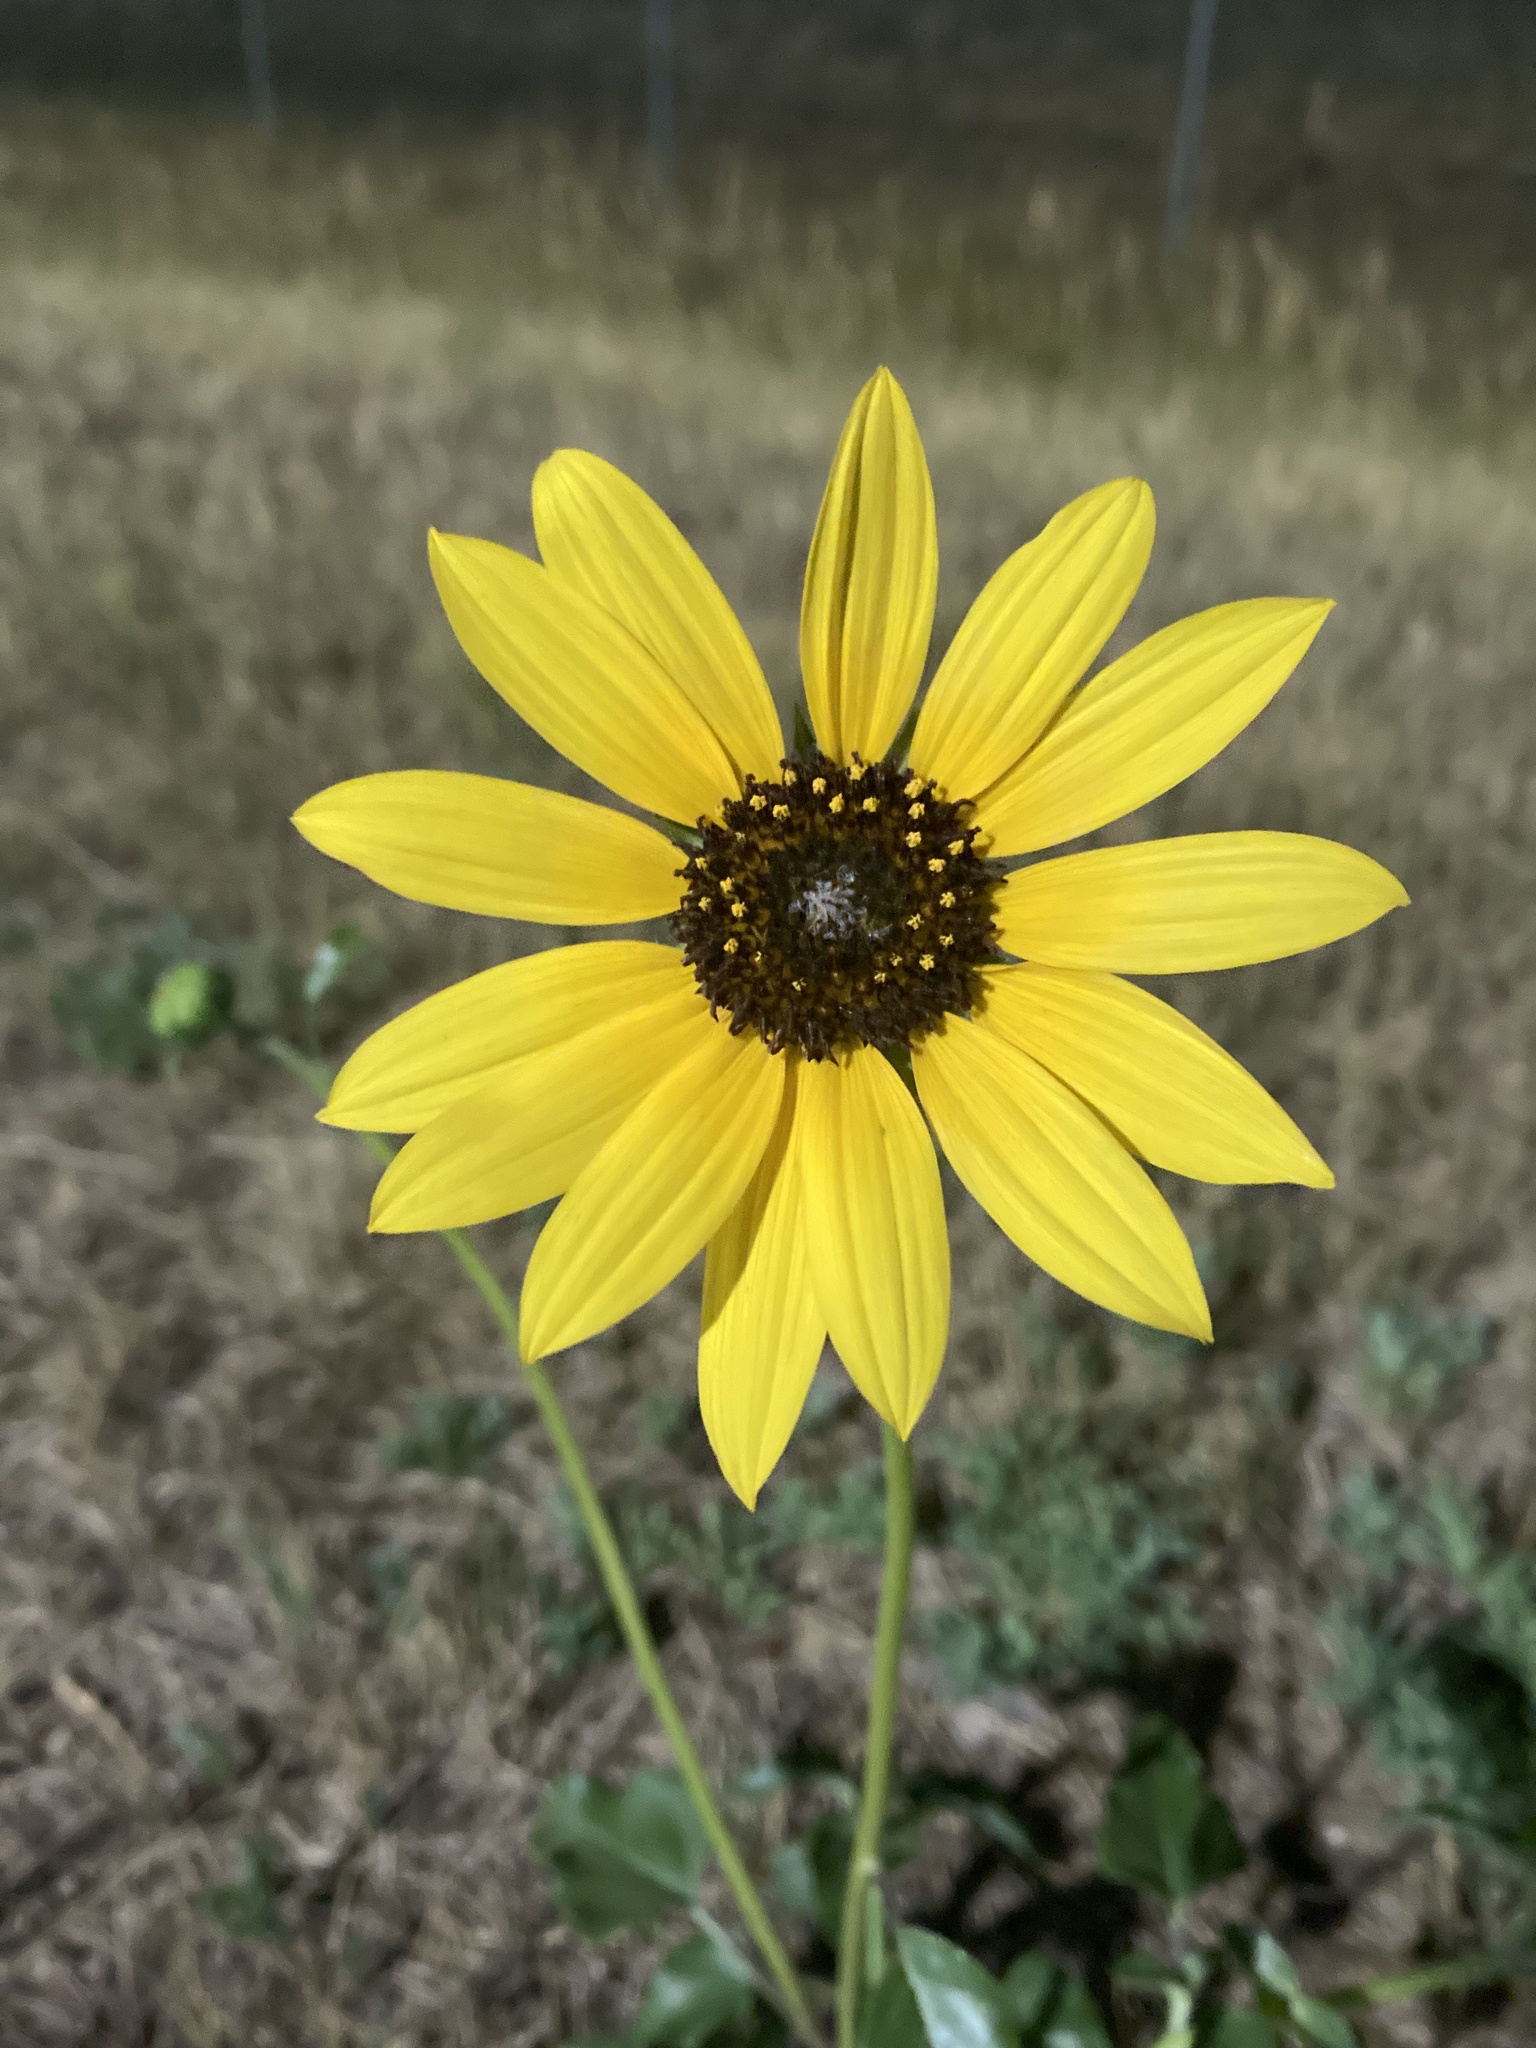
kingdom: Plantae
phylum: Tracheophyta
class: Magnoliopsida
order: Asterales
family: Asteraceae
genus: Helianthus
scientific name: Helianthus petiolaris
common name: Lesser sunflower
